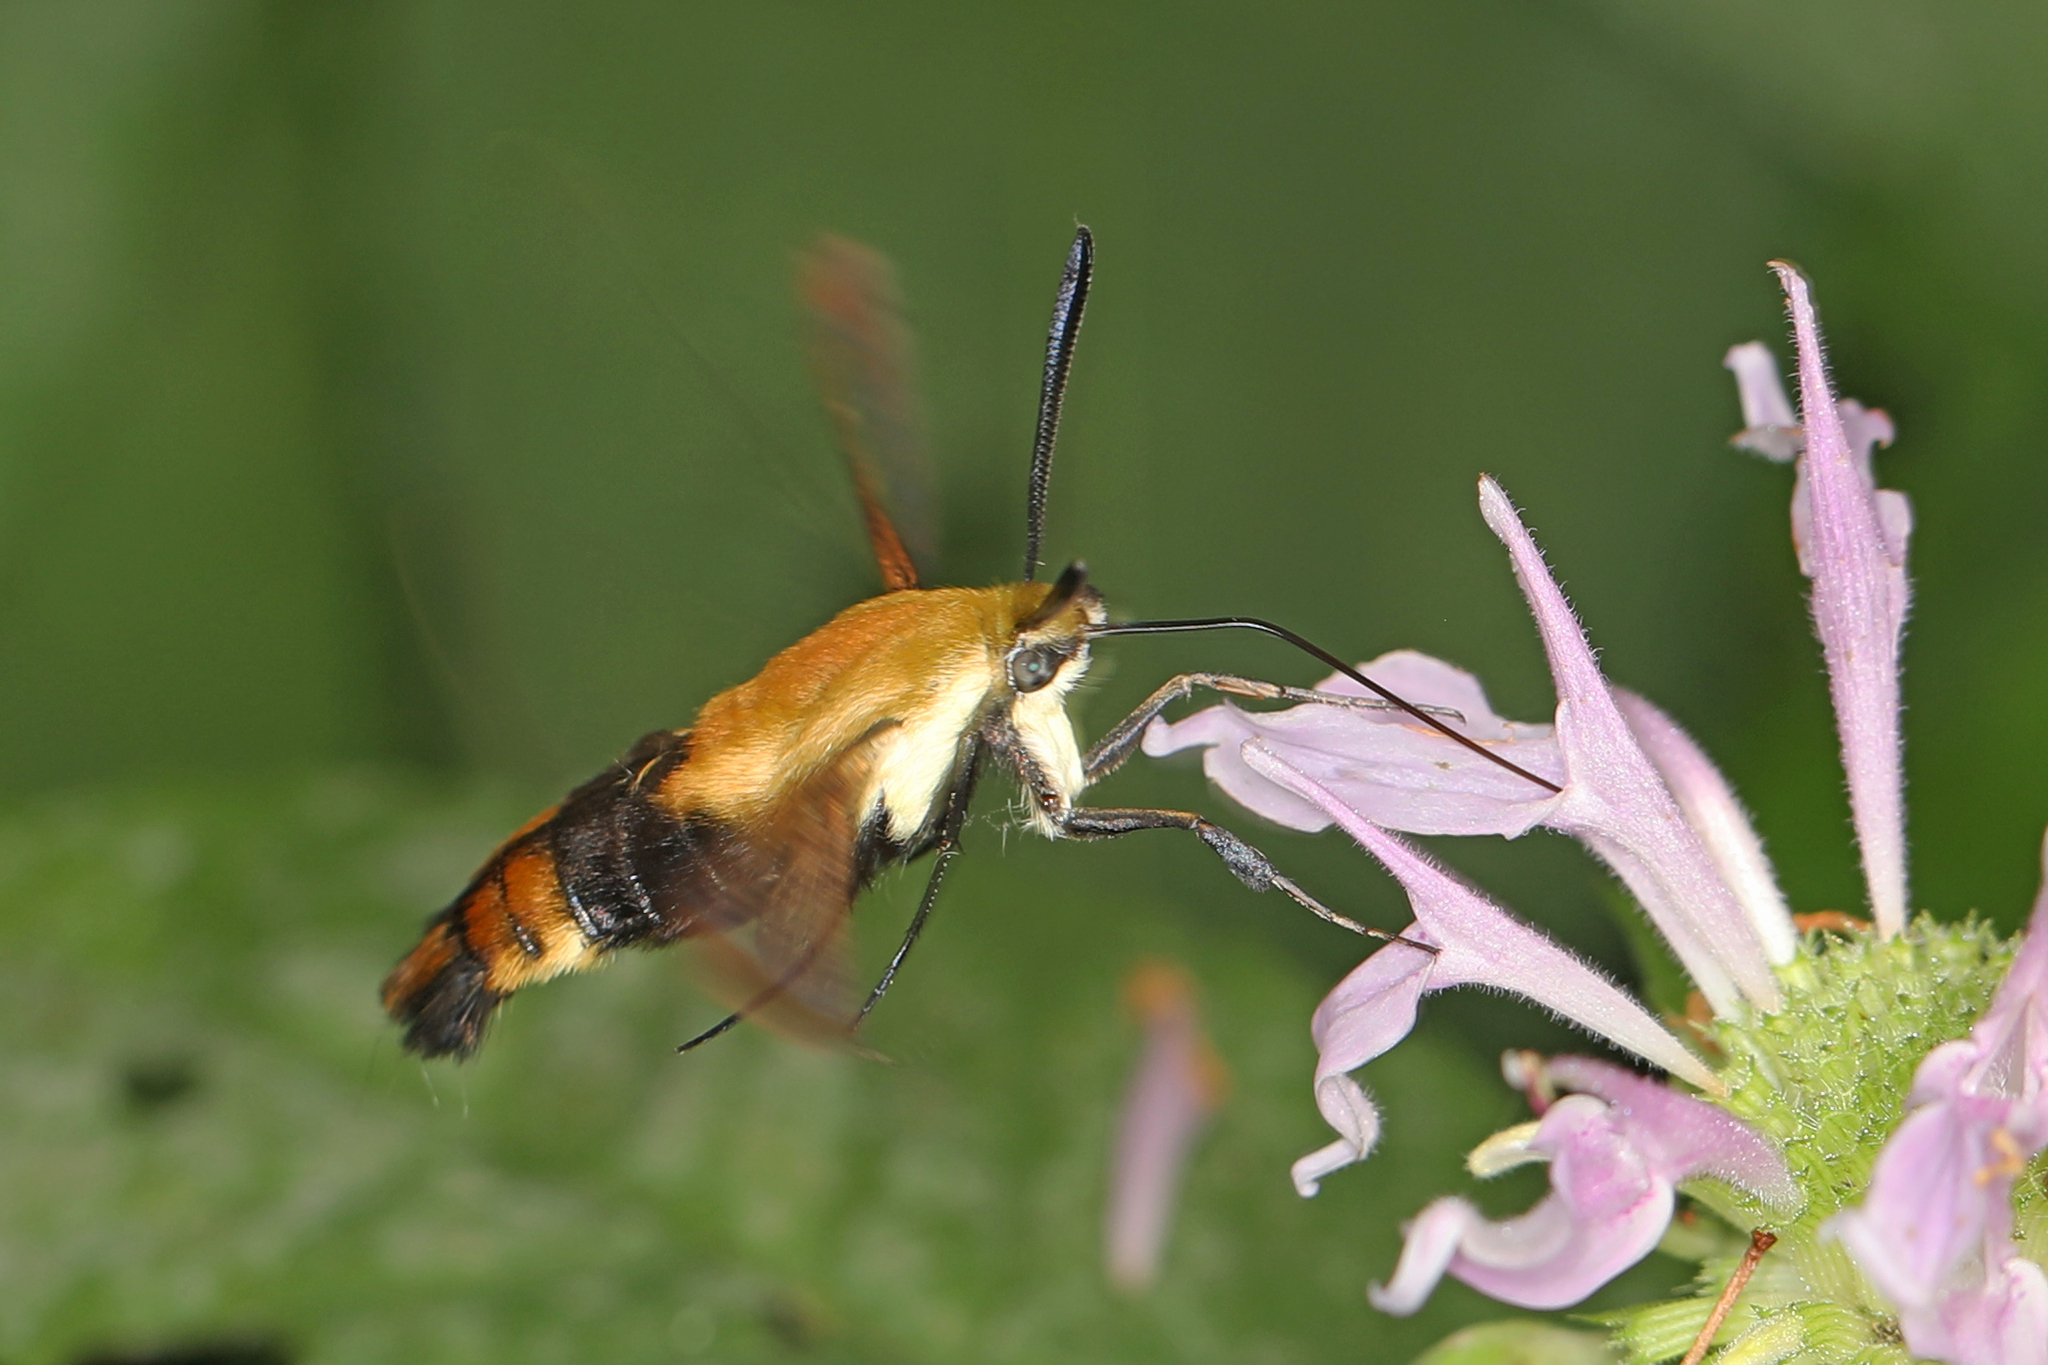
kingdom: Animalia
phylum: Arthropoda
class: Insecta
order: Lepidoptera
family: Sphingidae
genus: Hemaris
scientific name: Hemaris diffinis
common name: Bumblebee moth
